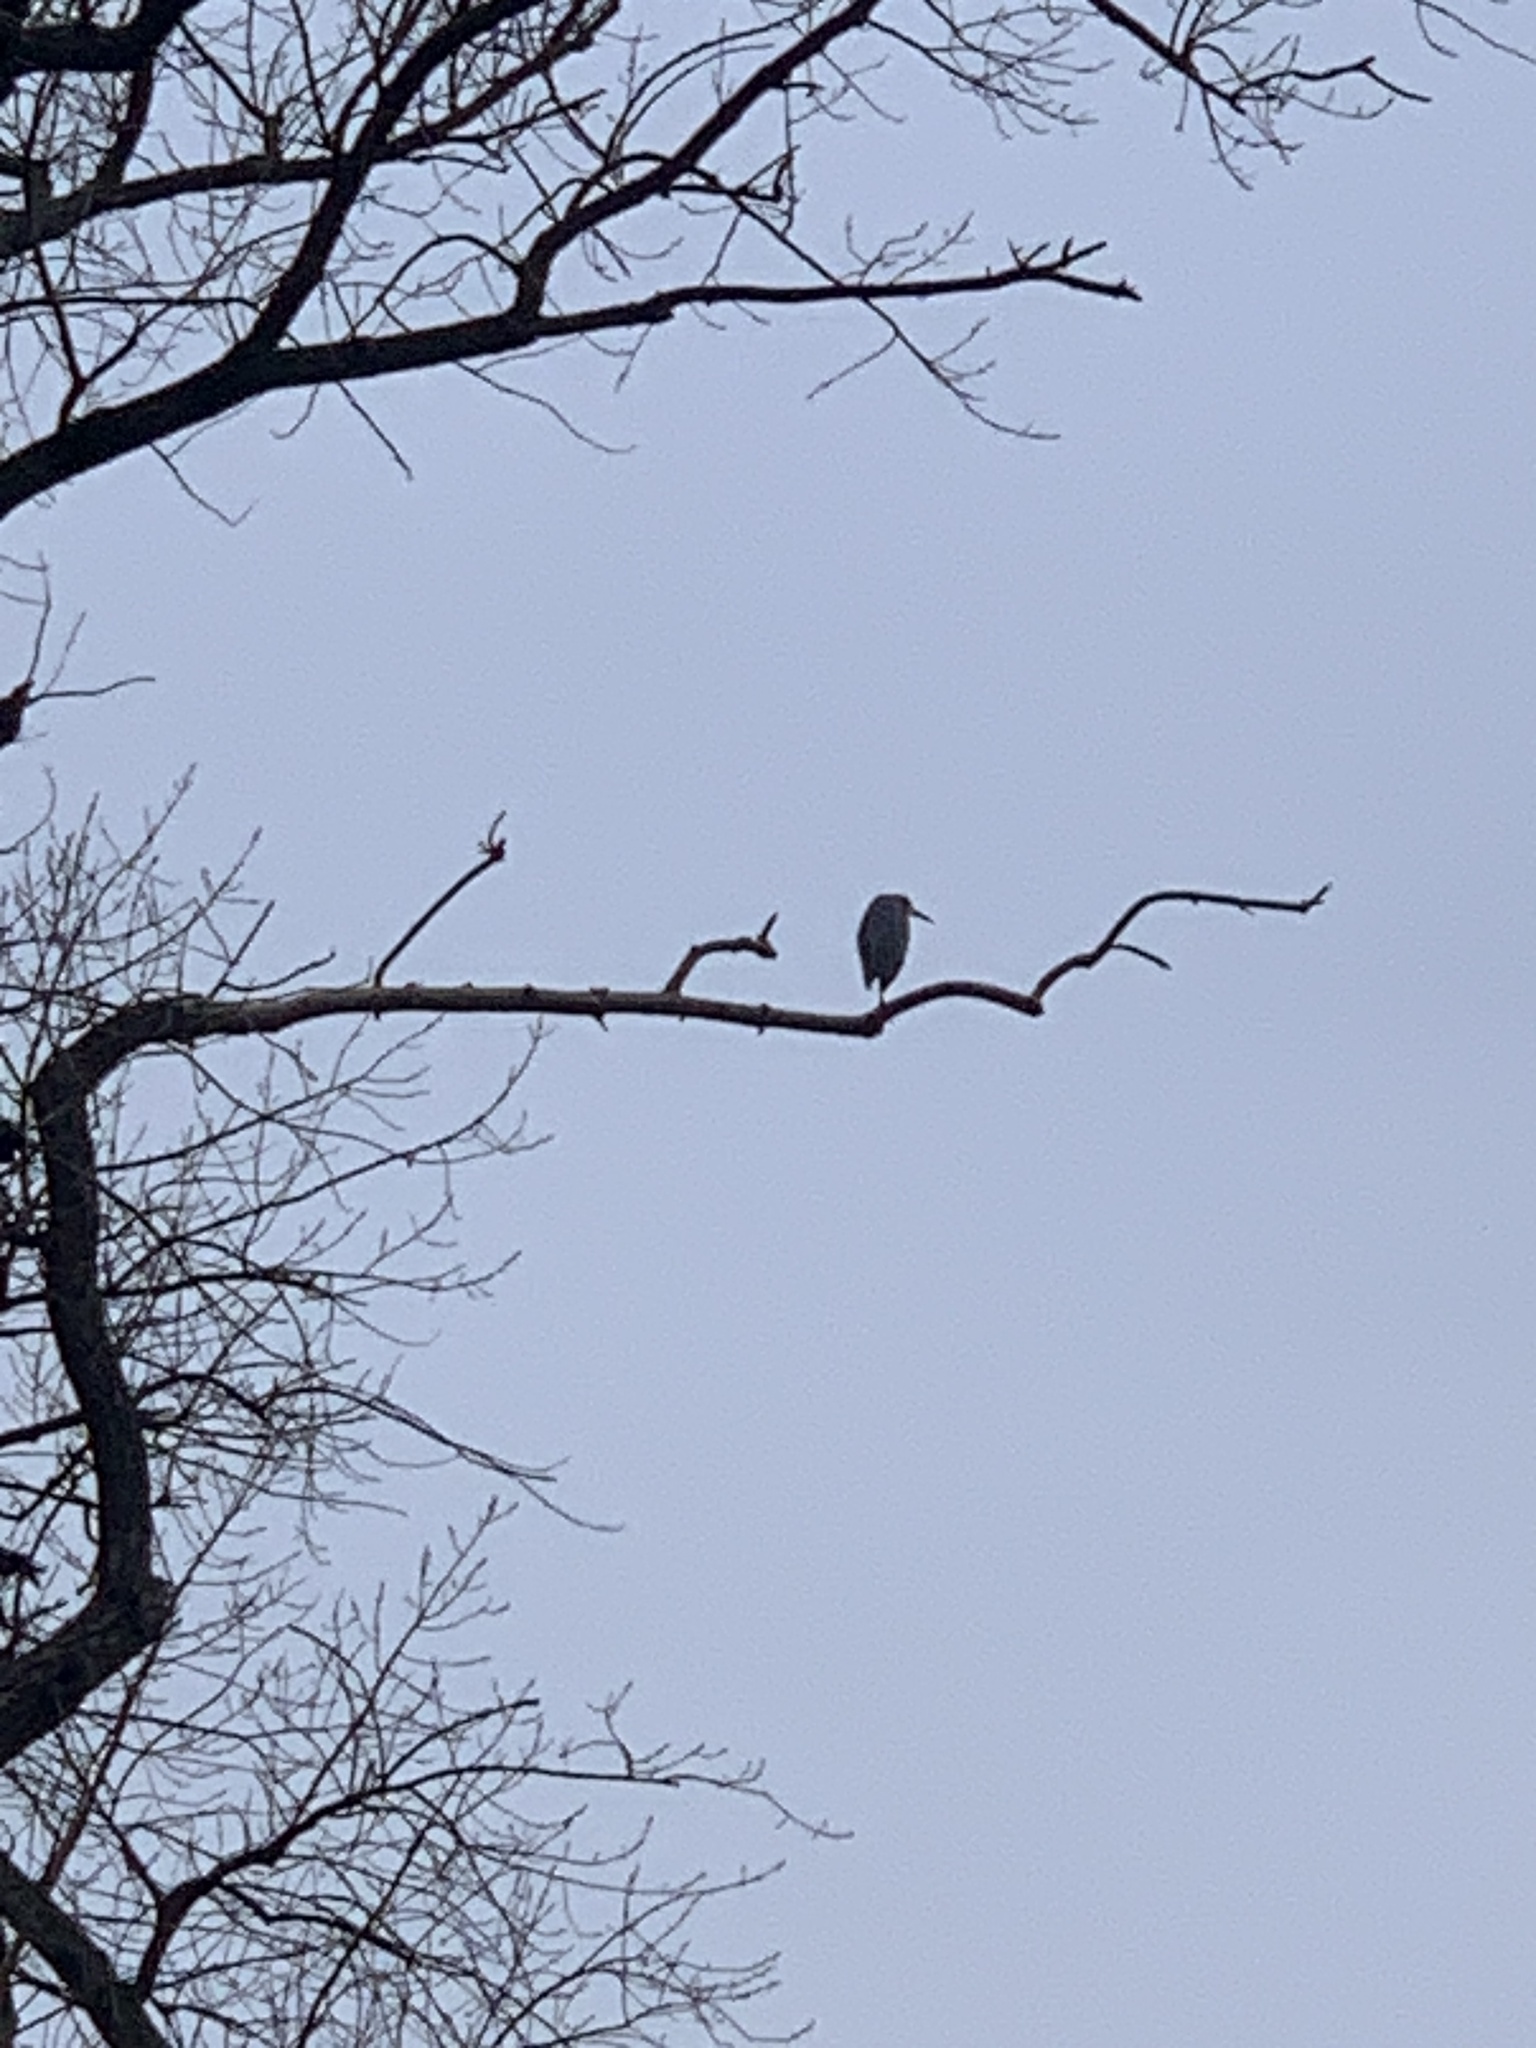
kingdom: Animalia
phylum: Chordata
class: Aves
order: Pelecaniformes
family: Ardeidae
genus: Ardea
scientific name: Ardea cinerea
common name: Grey heron
